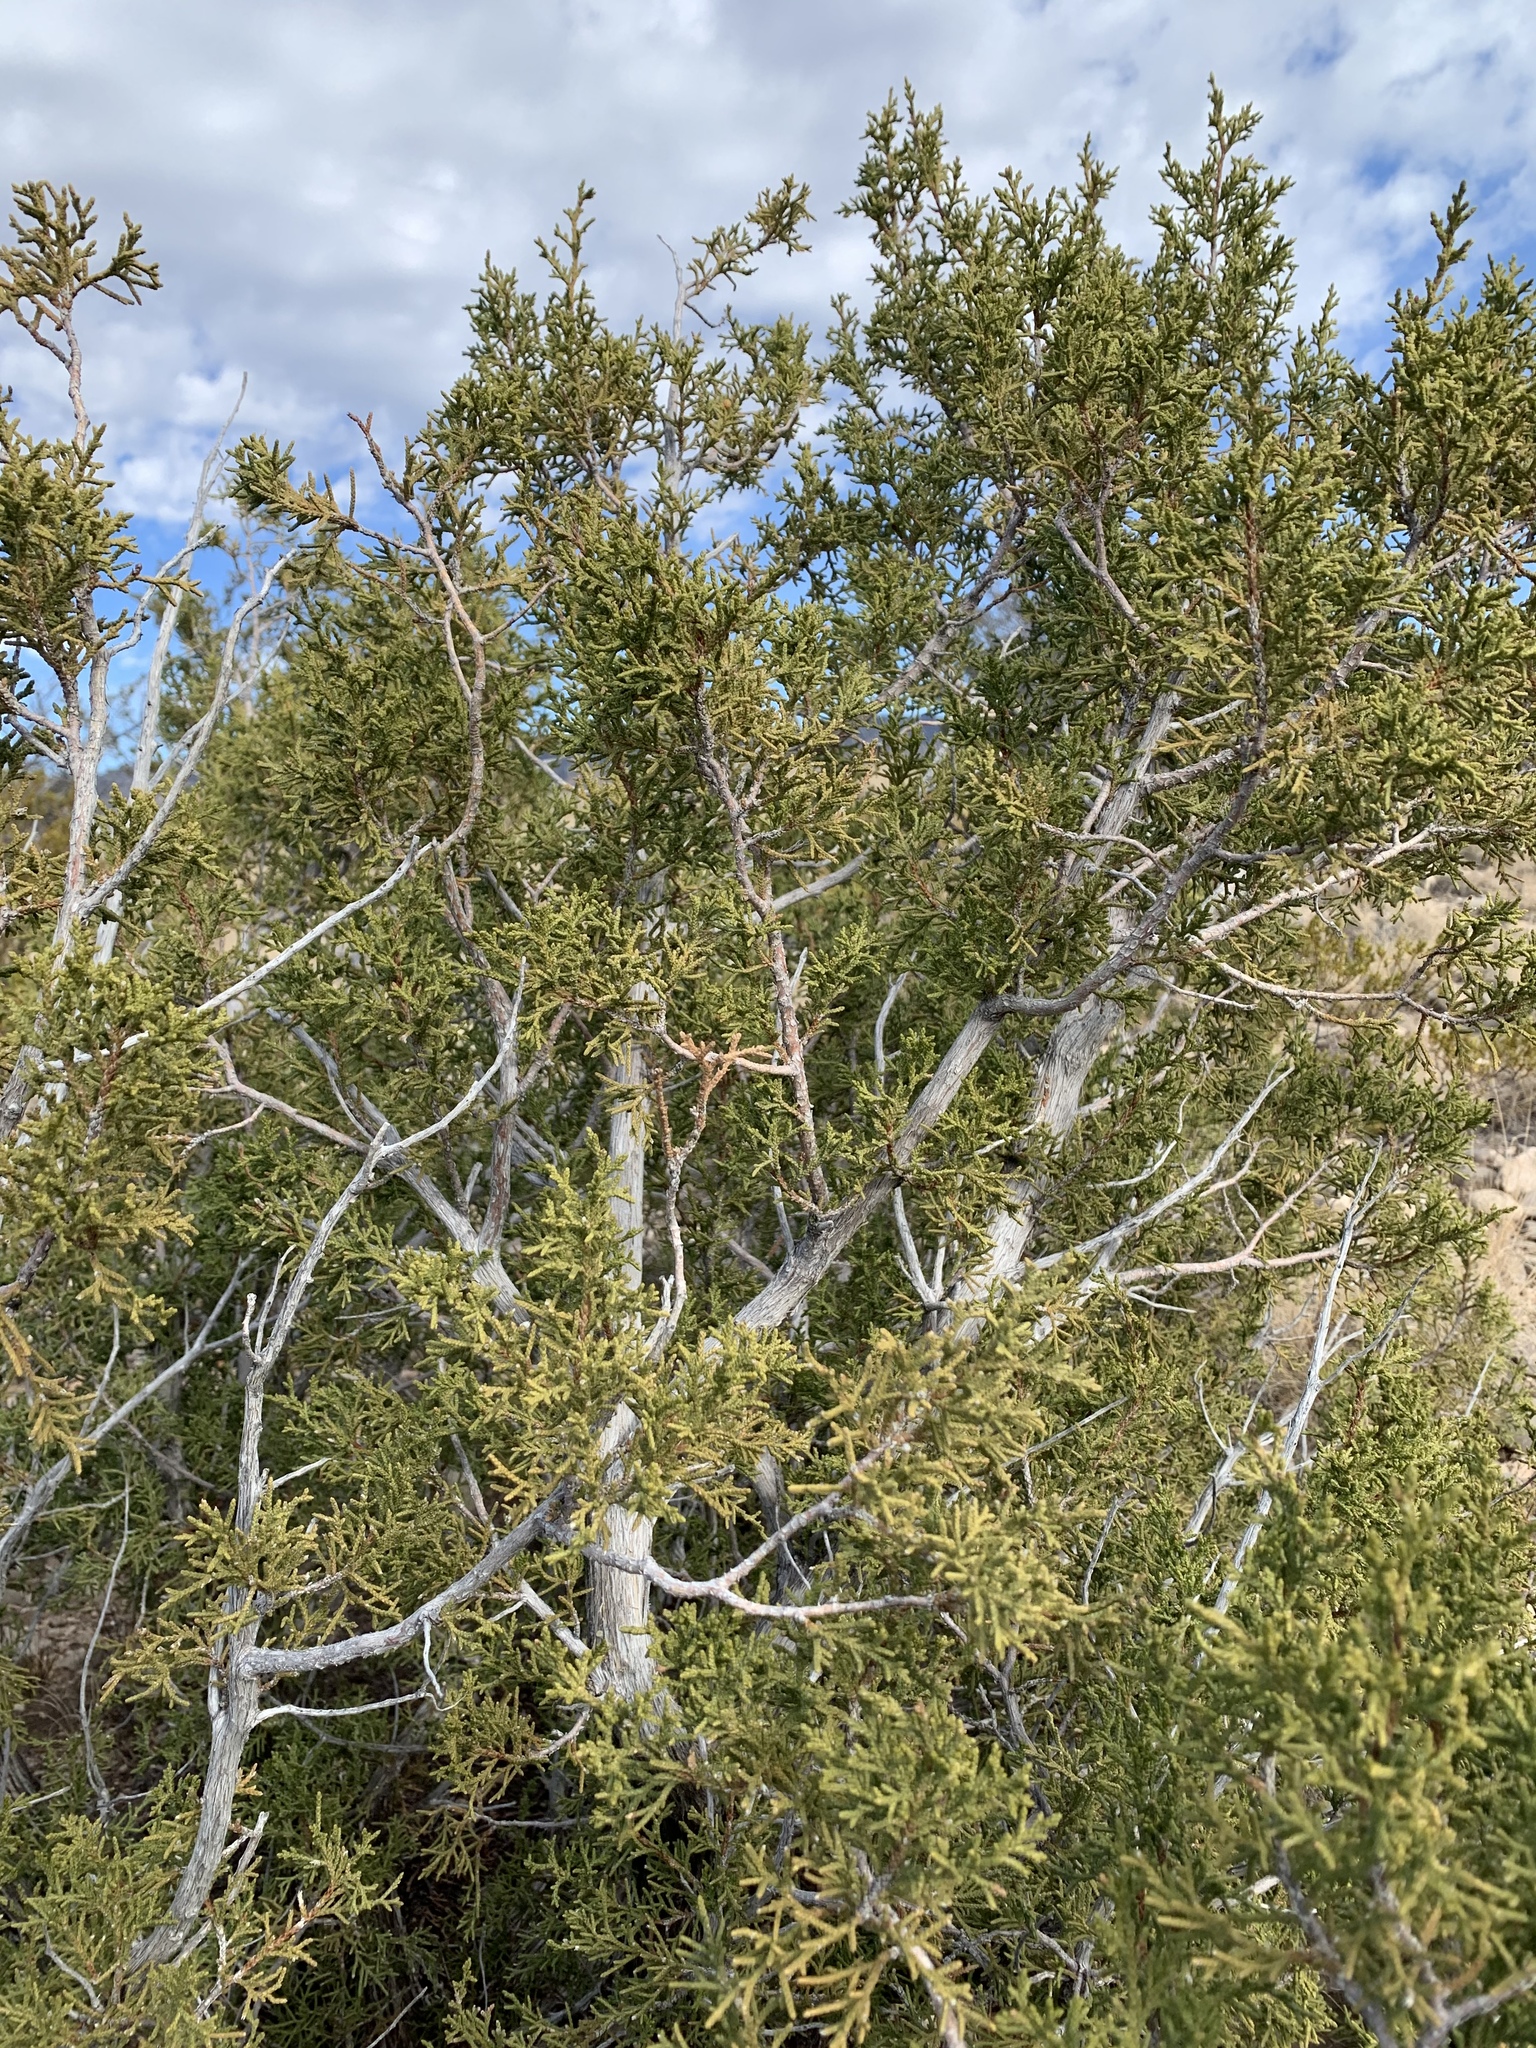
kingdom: Plantae
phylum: Tracheophyta
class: Pinopsida
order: Pinales
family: Cupressaceae
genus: Juniperus
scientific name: Juniperus monosperma
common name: One-seed juniper
